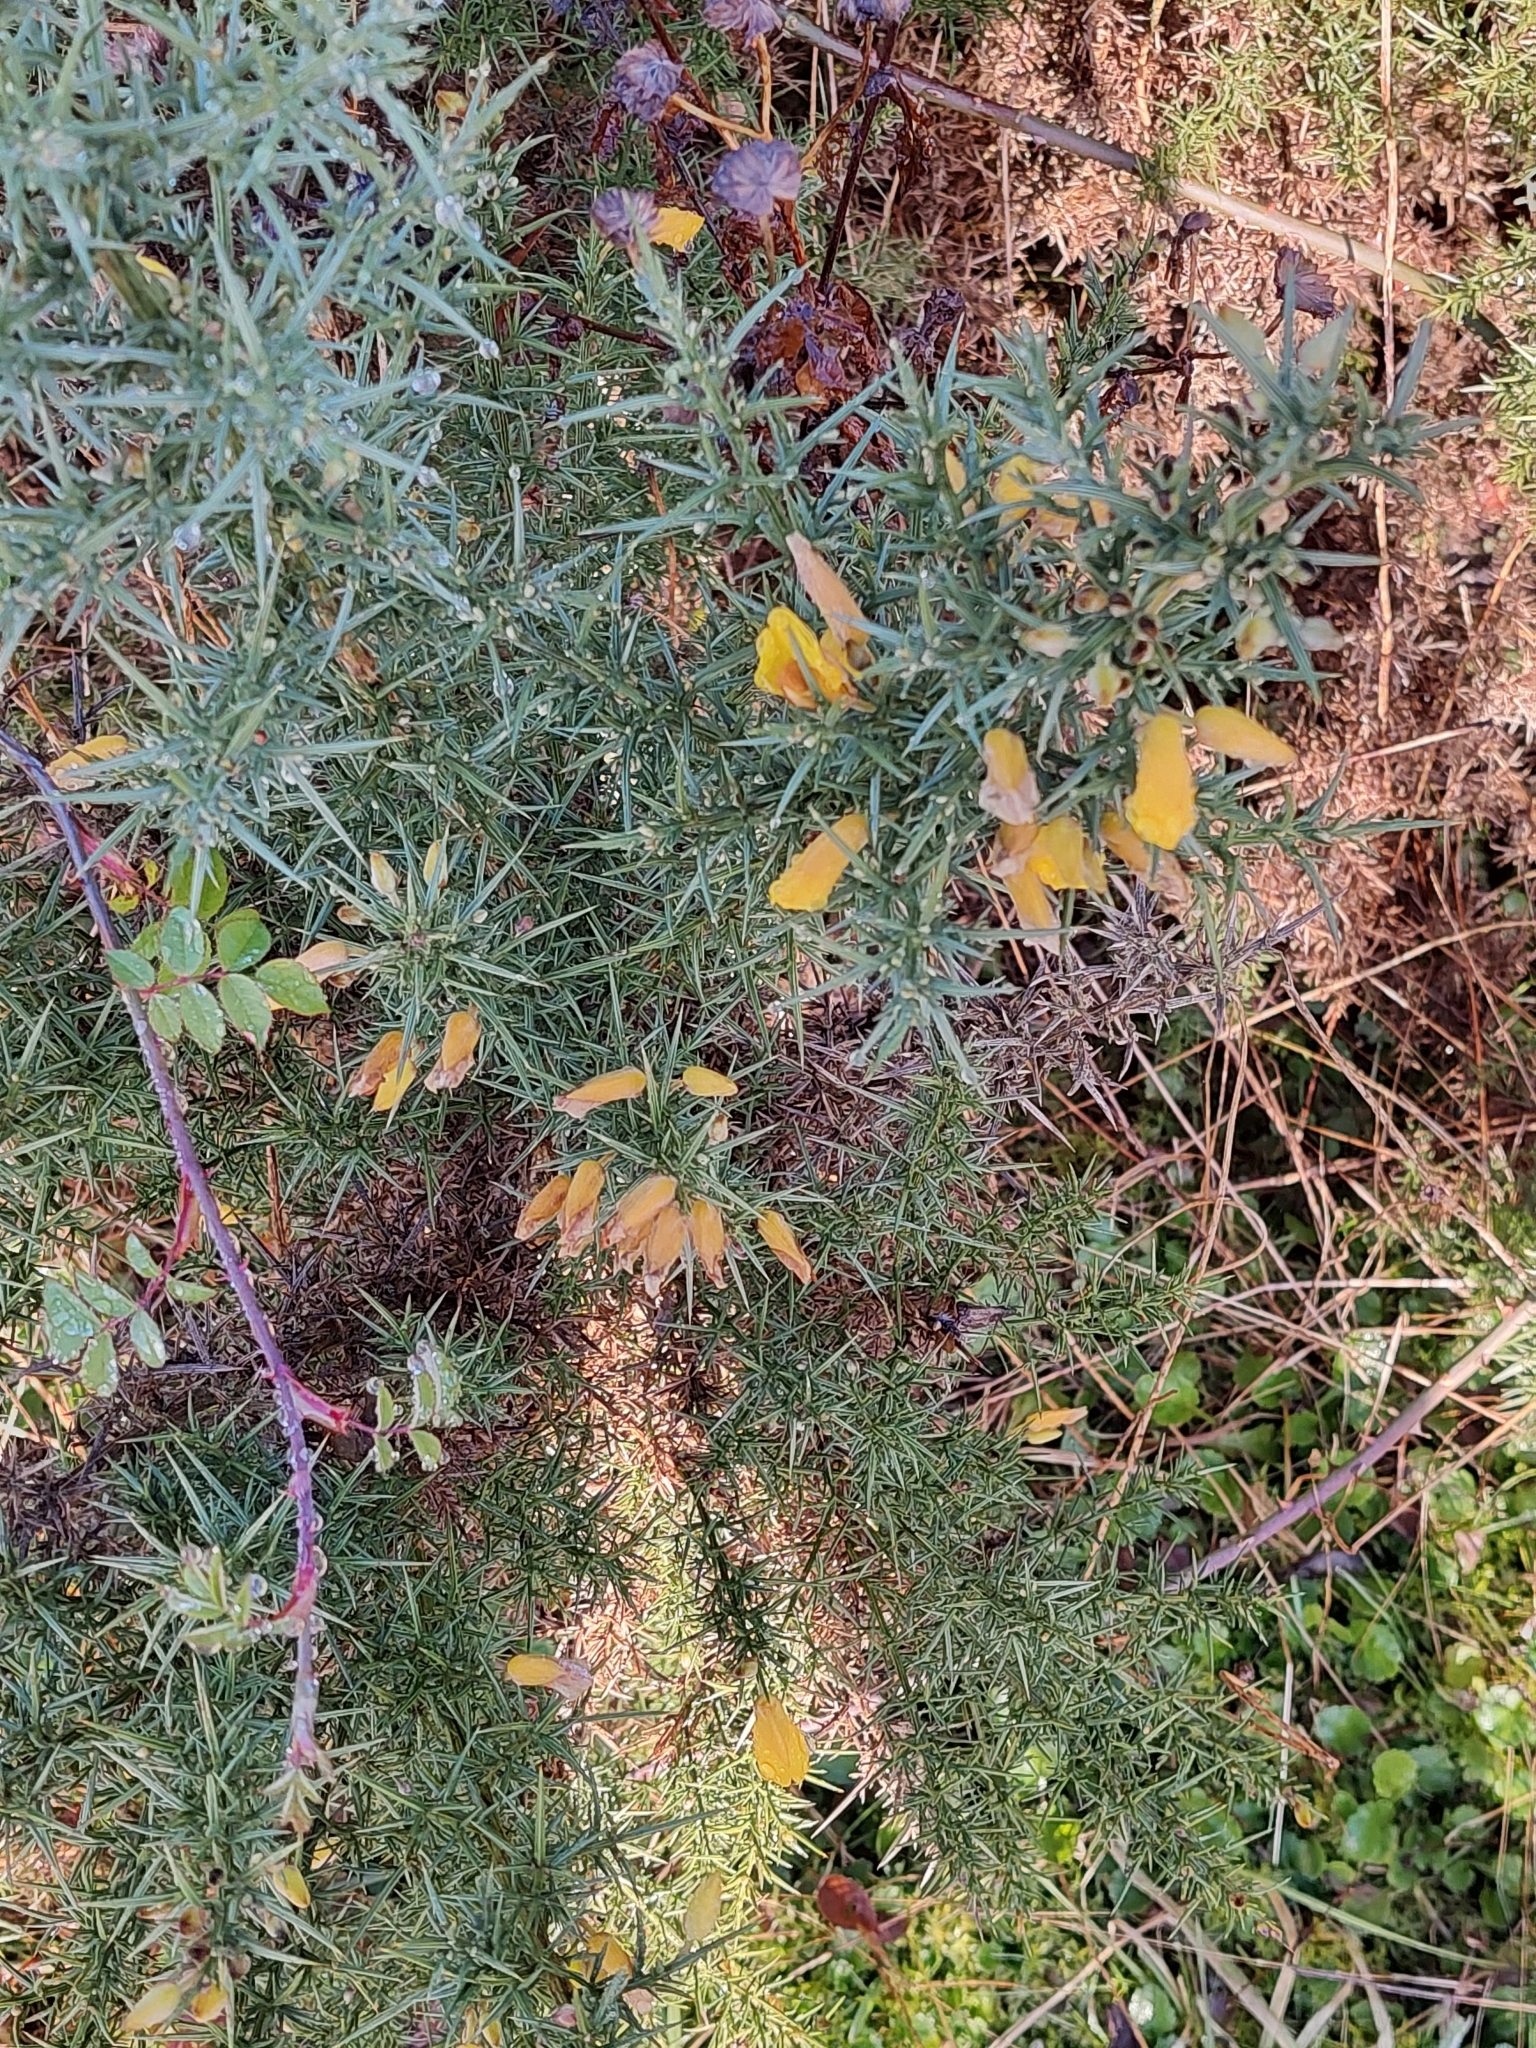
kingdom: Plantae
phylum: Tracheophyta
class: Magnoliopsida
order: Fabales
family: Fabaceae
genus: Ulex
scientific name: Ulex europaeus
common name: Common gorse
